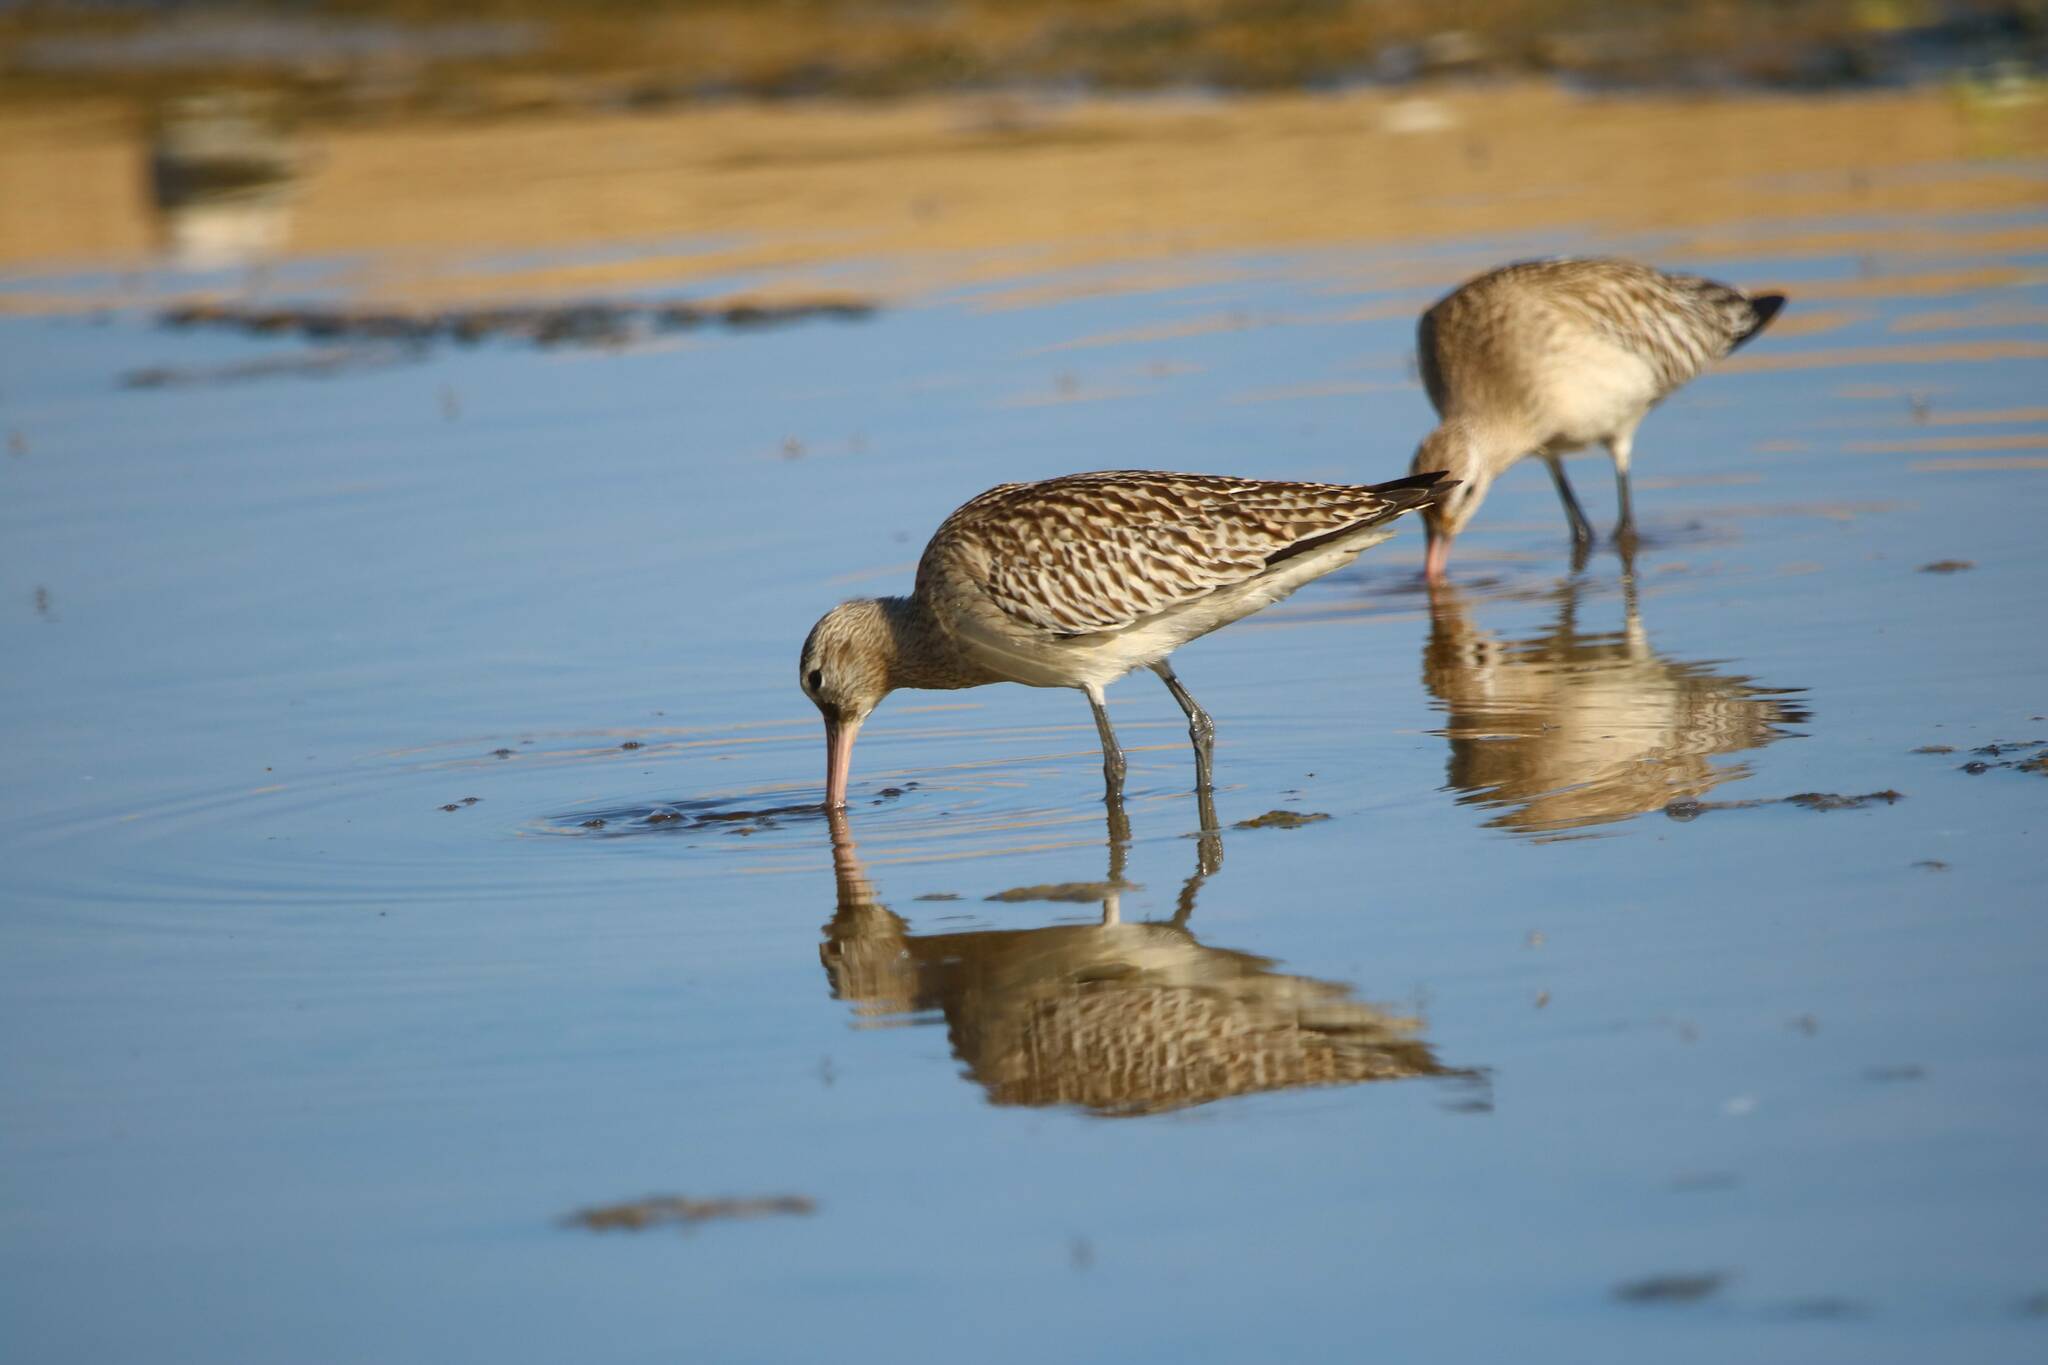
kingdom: Animalia
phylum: Chordata
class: Aves
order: Charadriiformes
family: Scolopacidae
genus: Limosa
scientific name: Limosa lapponica
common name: Bar-tailed godwit
